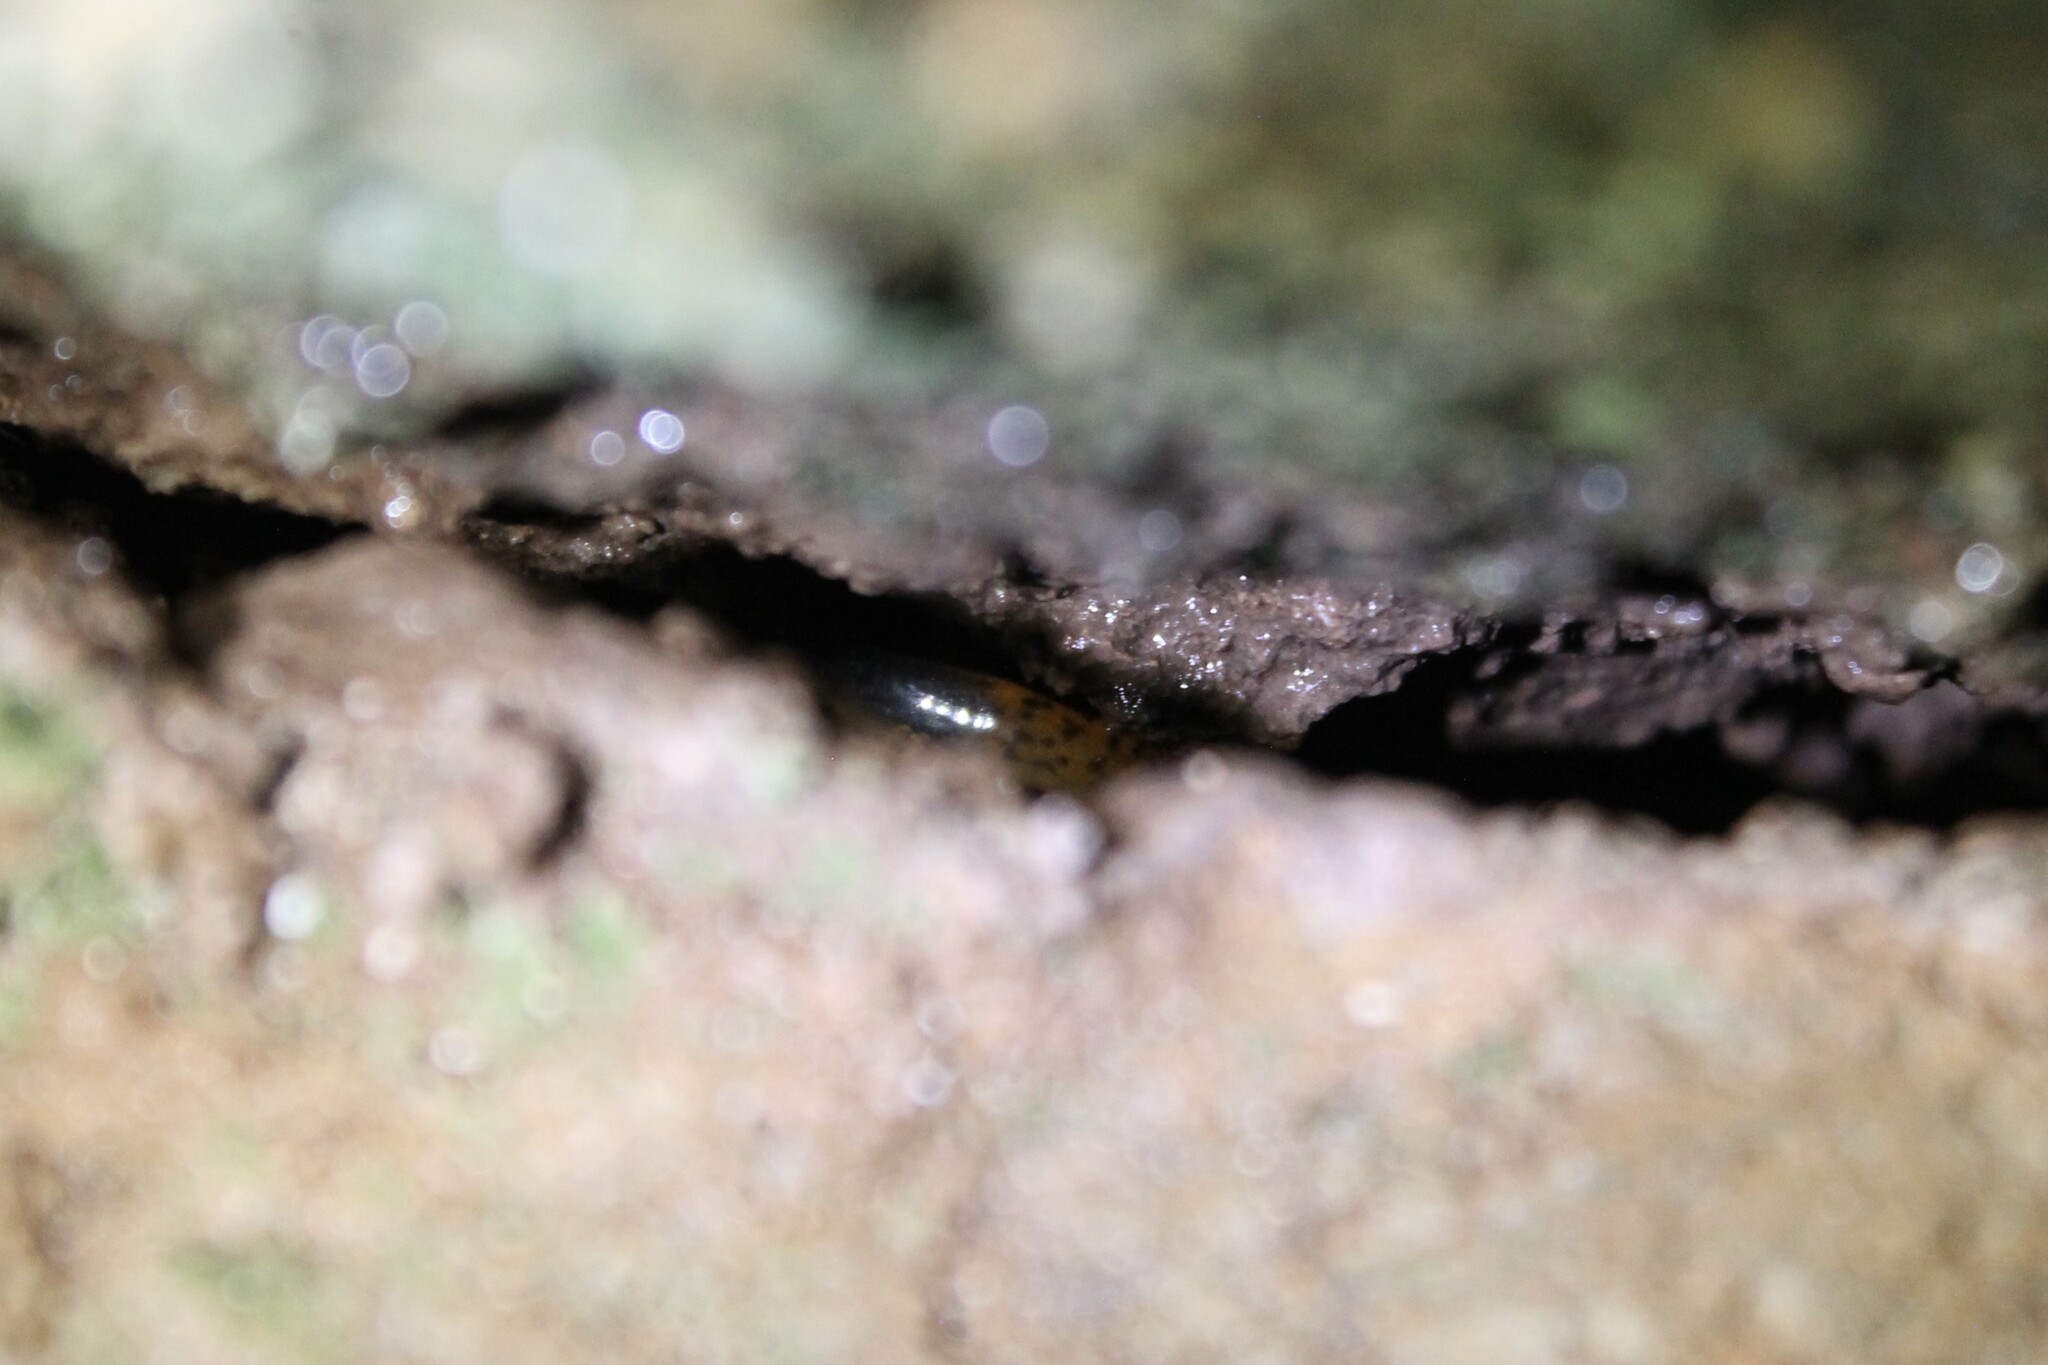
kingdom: Animalia
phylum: Chordata
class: Amphibia
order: Caudata
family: Plethodontidae
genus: Eurycea
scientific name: Eurycea lucifuga
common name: Cave salamander
